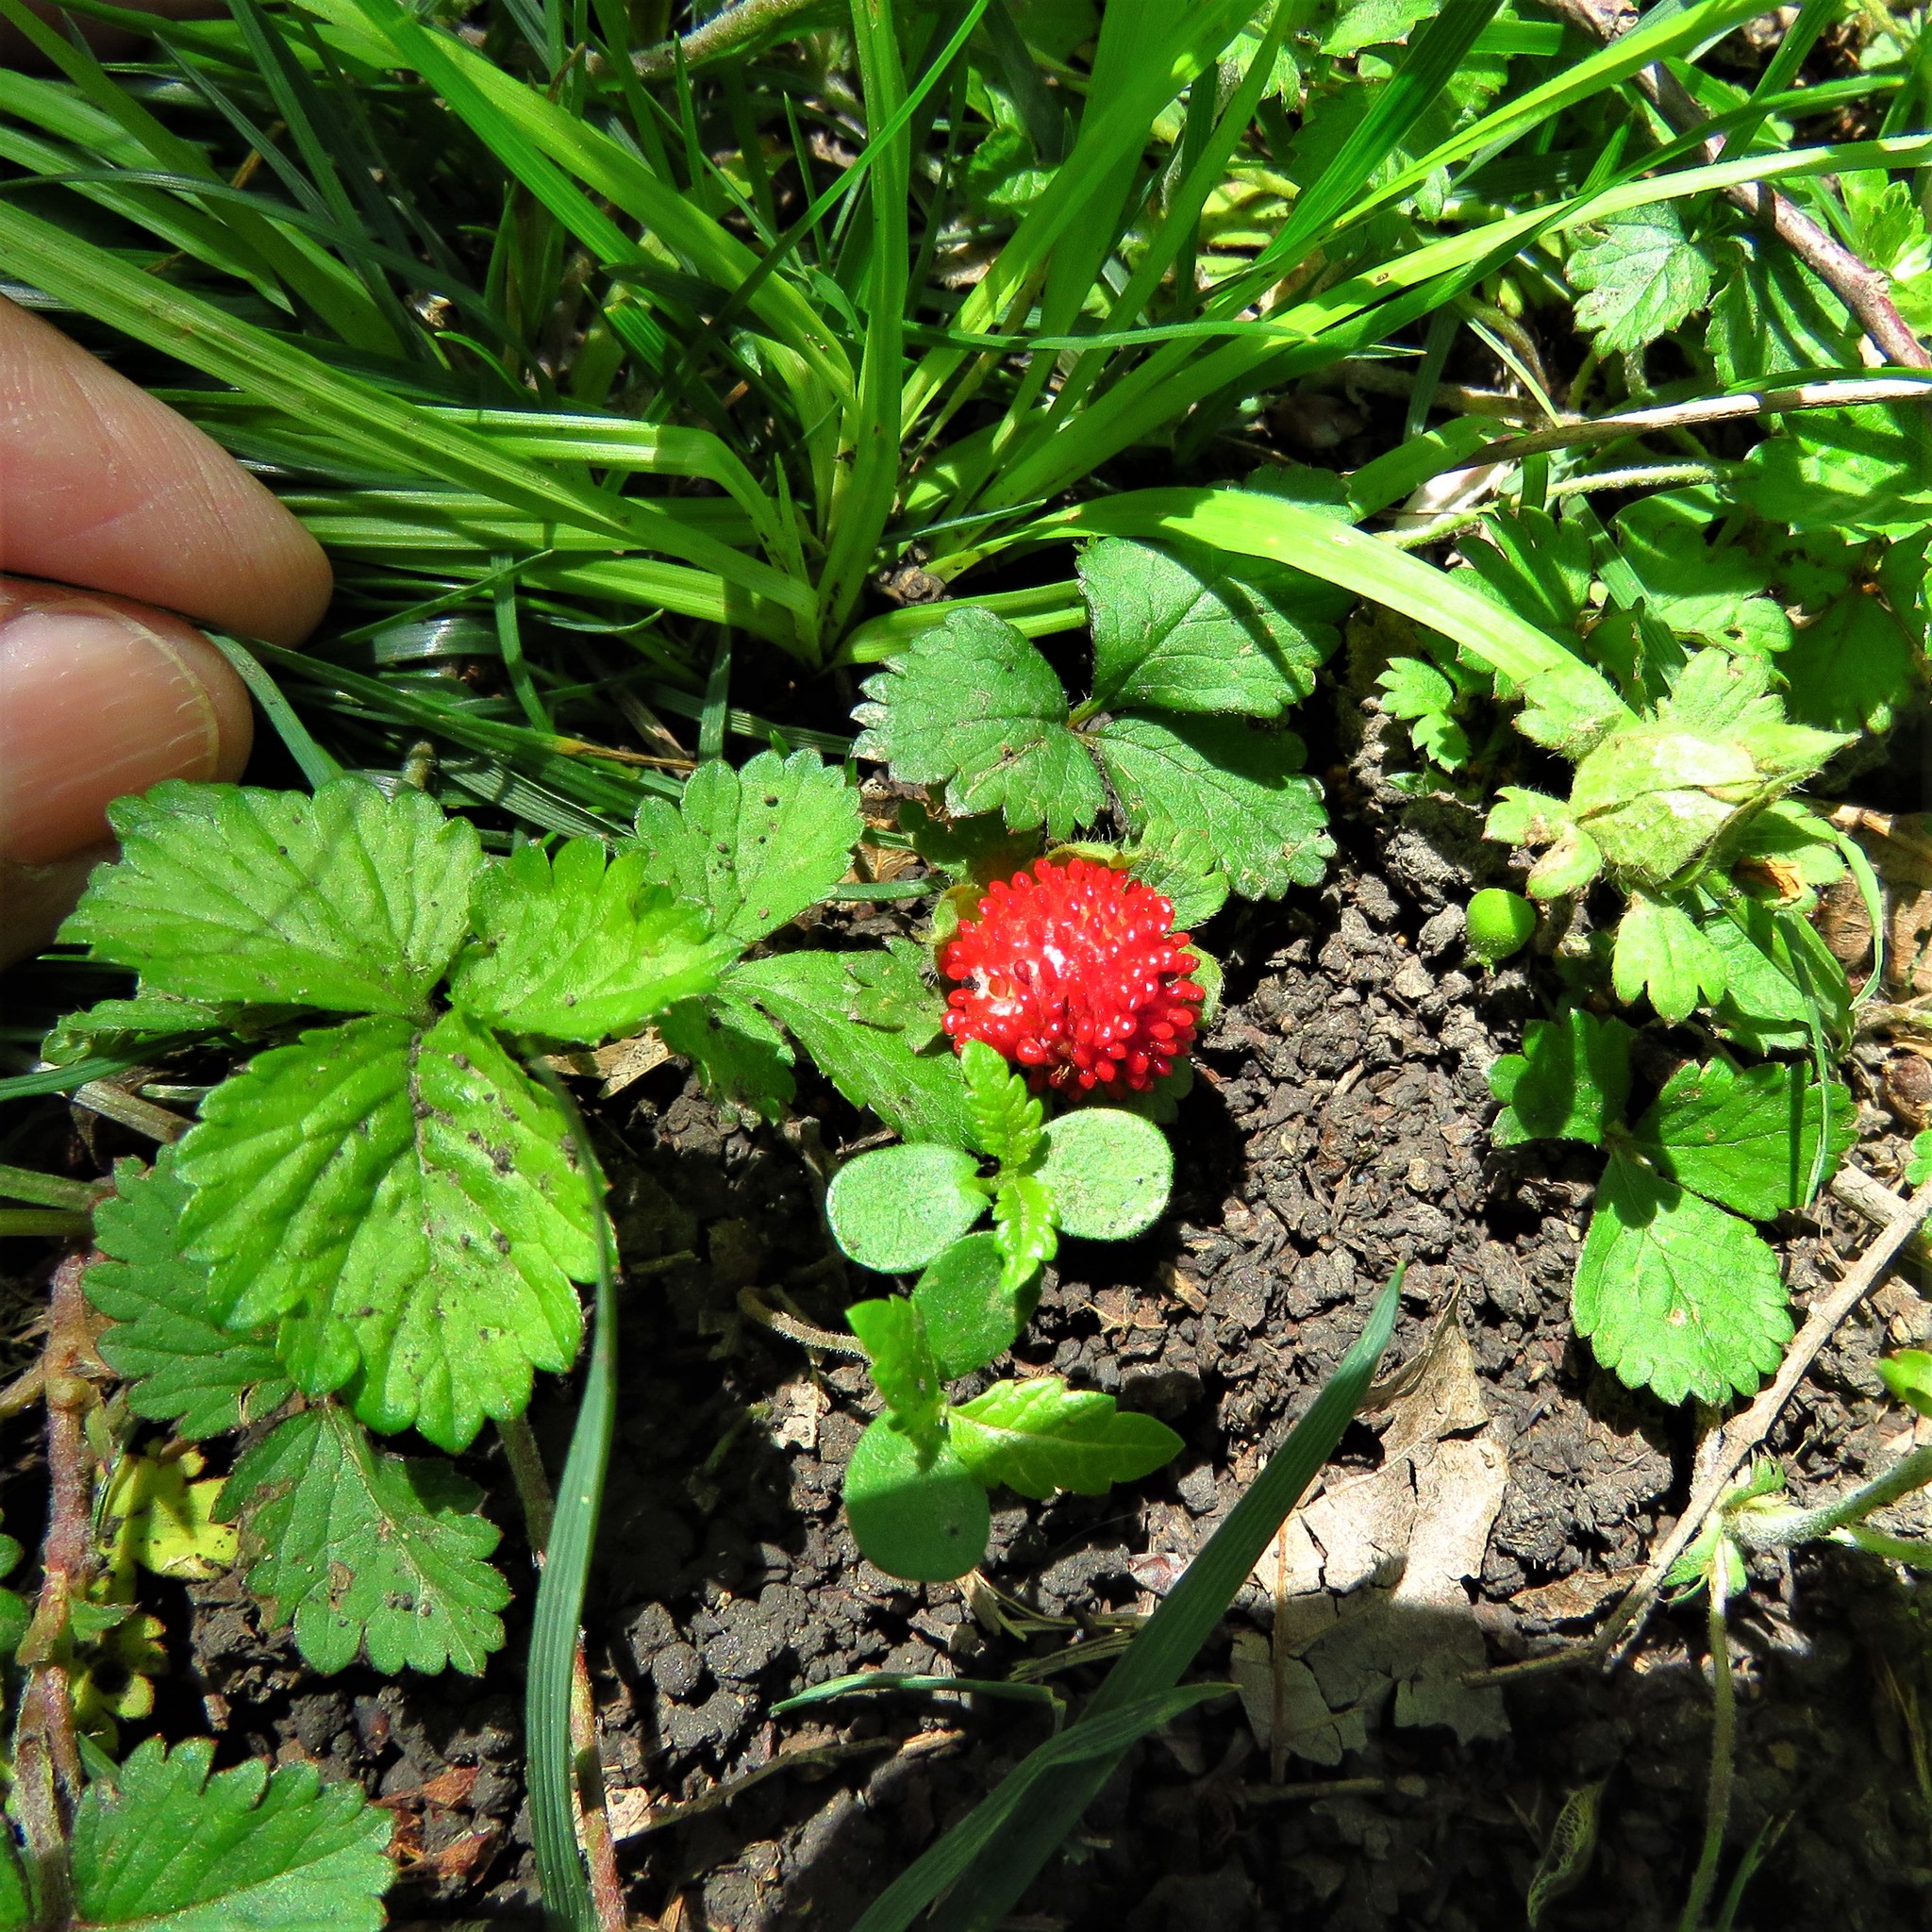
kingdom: Plantae
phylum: Tracheophyta
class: Magnoliopsida
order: Rosales
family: Rosaceae
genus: Potentilla
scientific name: Potentilla indica
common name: Yellow-flowered strawberry
